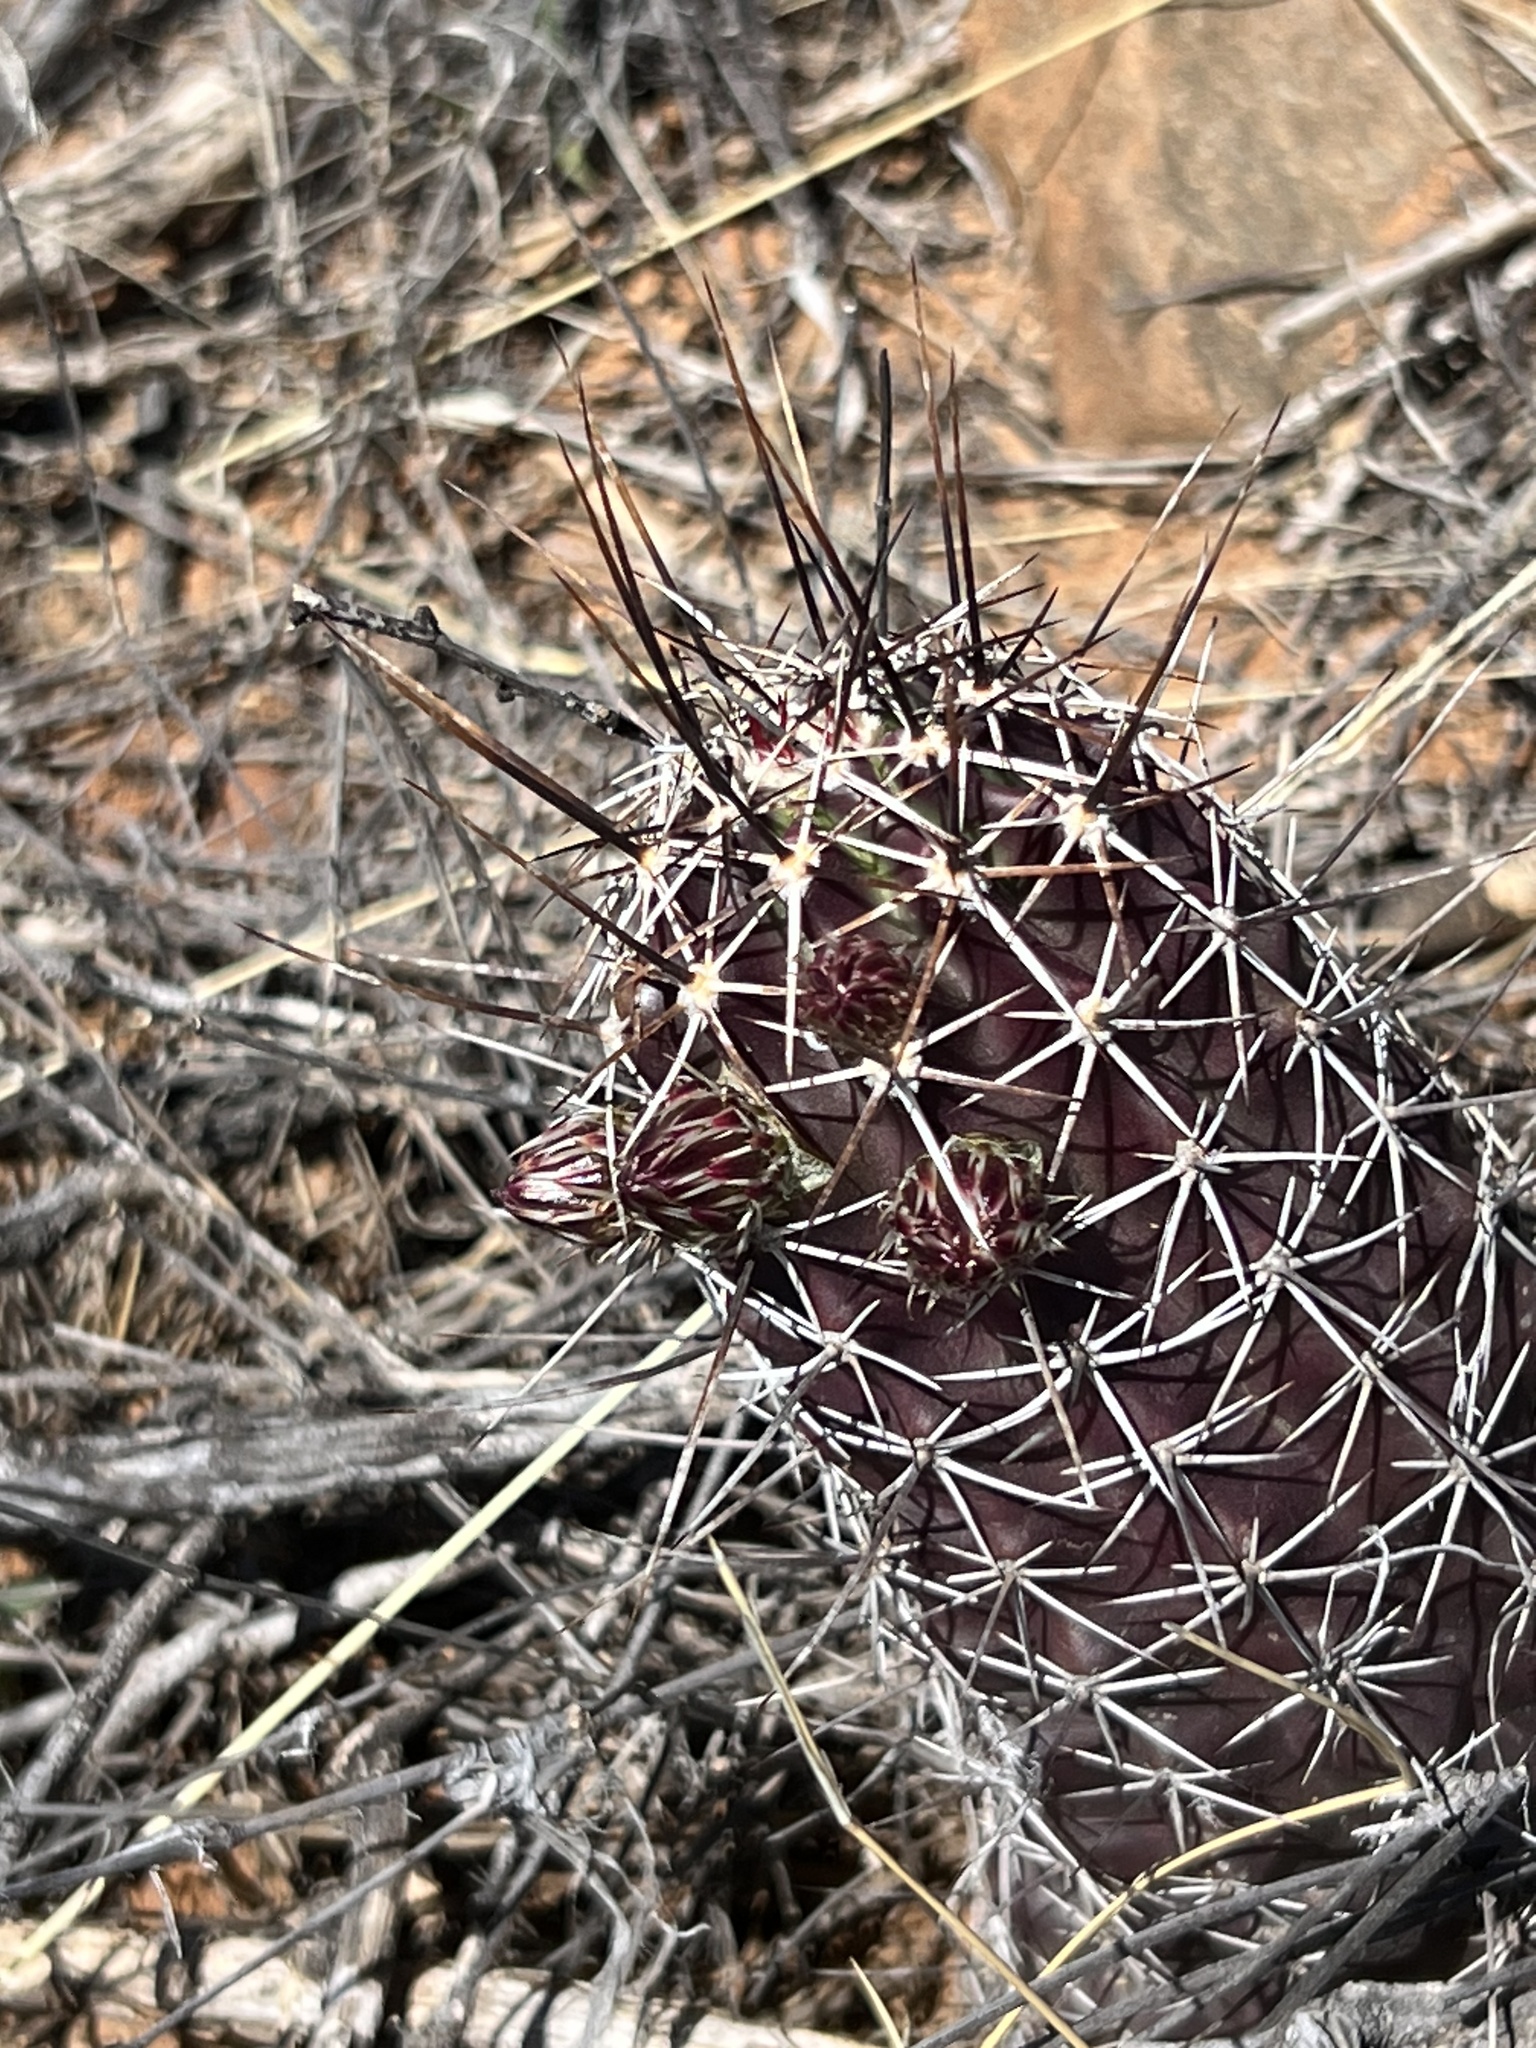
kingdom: Plantae
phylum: Tracheophyta
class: Magnoliopsida
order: Caryophyllales
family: Cactaceae
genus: Echinocereus
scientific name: Echinocereus fendleri
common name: Fendler's hedgehog cactus
